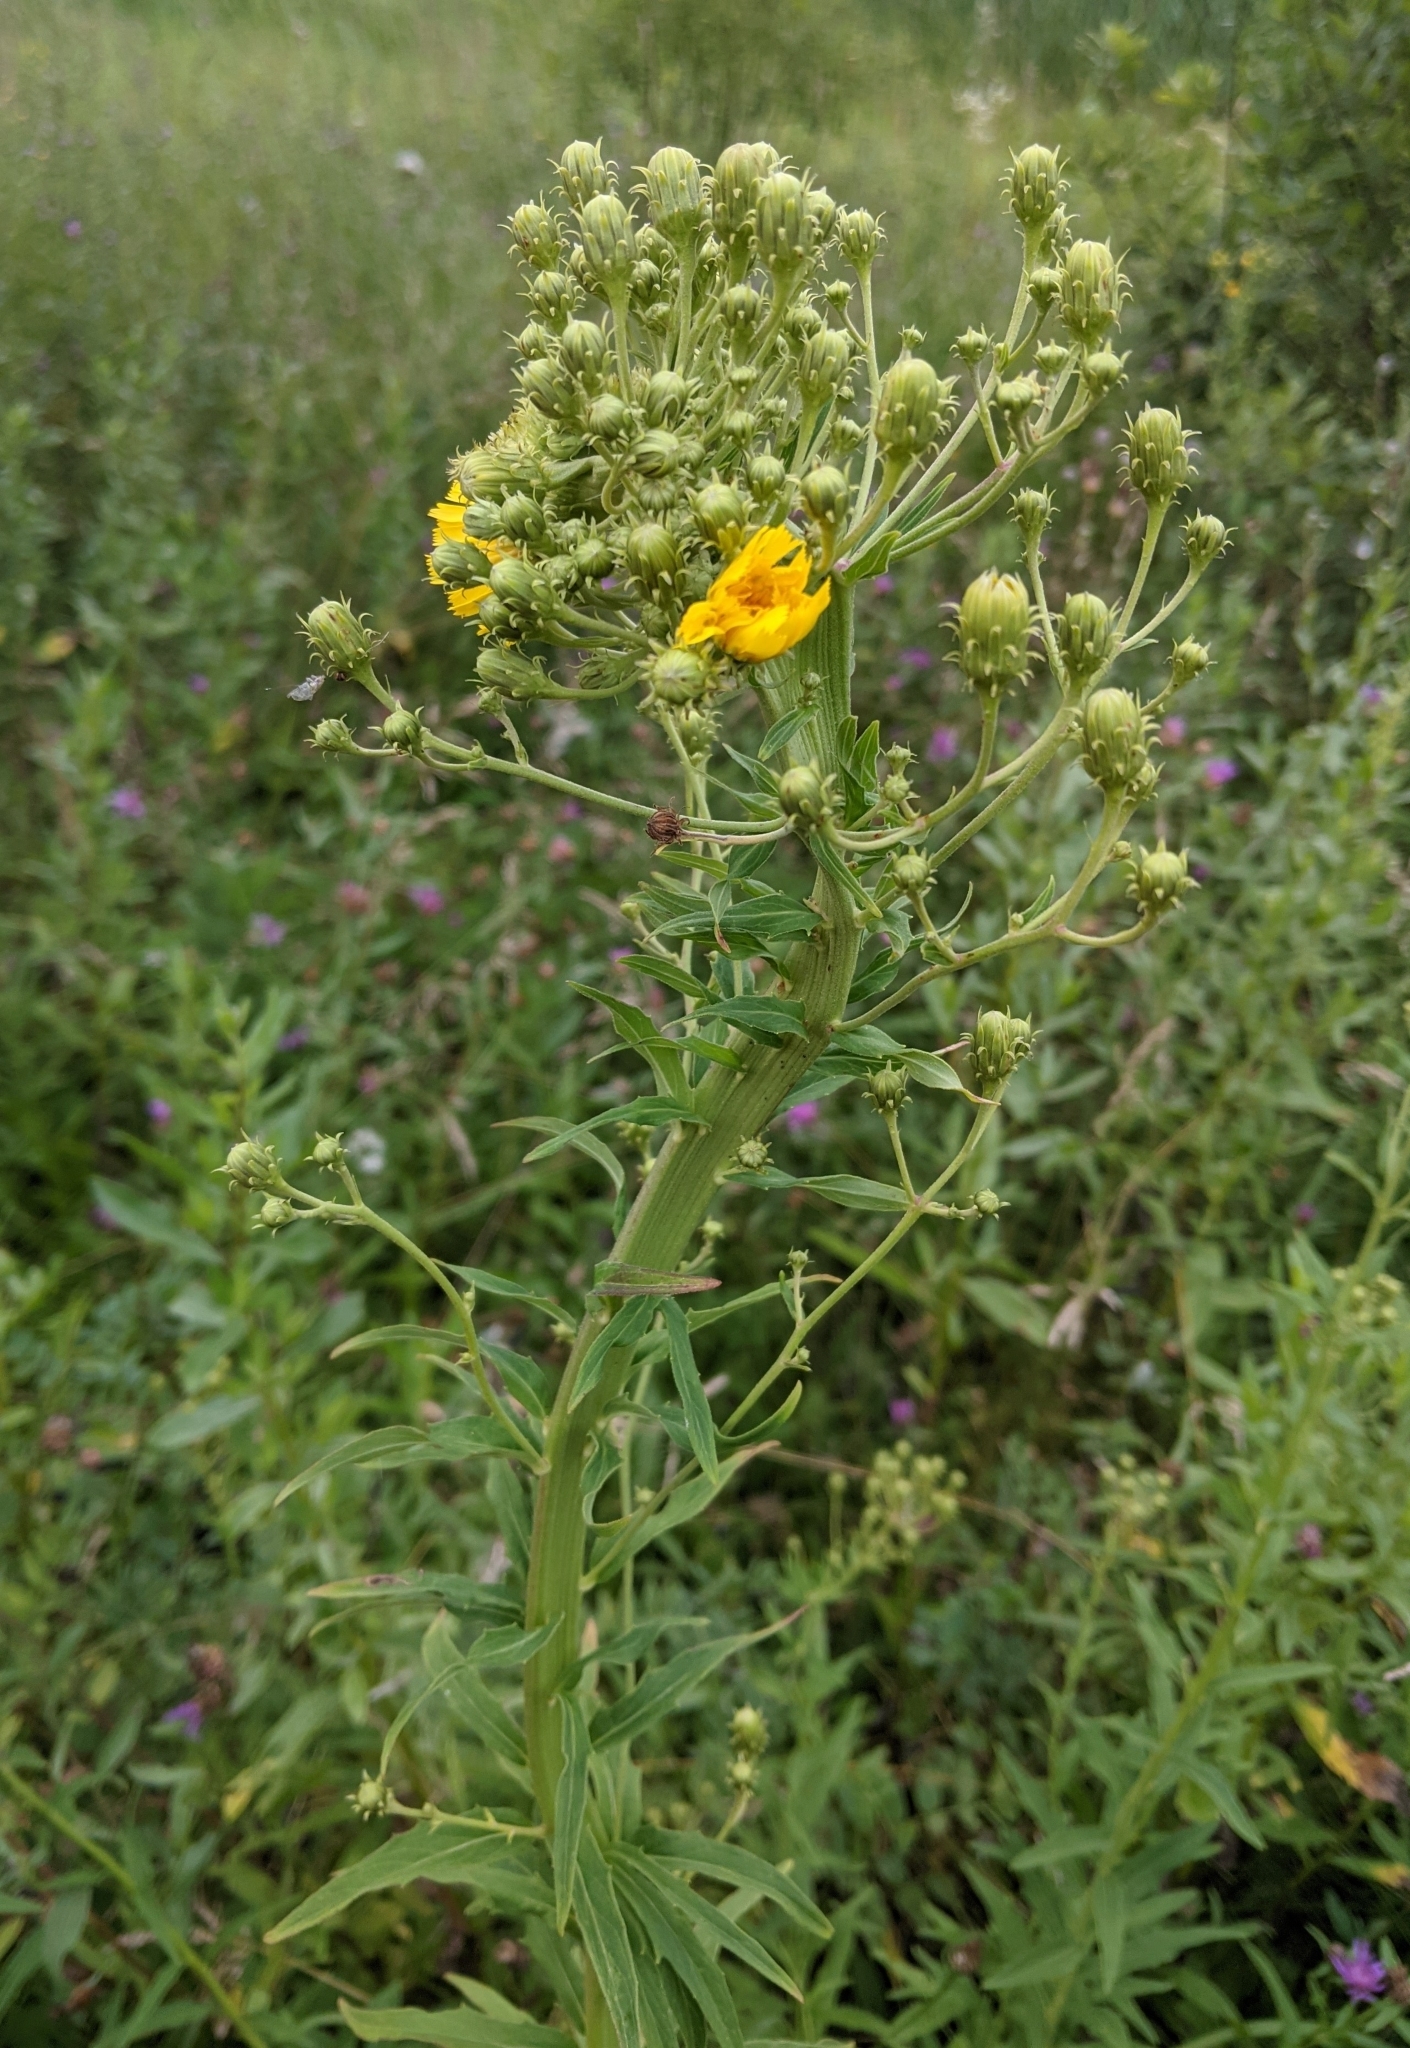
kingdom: Plantae
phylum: Tracheophyta
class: Magnoliopsida
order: Asterales
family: Asteraceae
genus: Hieracium
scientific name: Hieracium umbellatum
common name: Northern hawkweed
